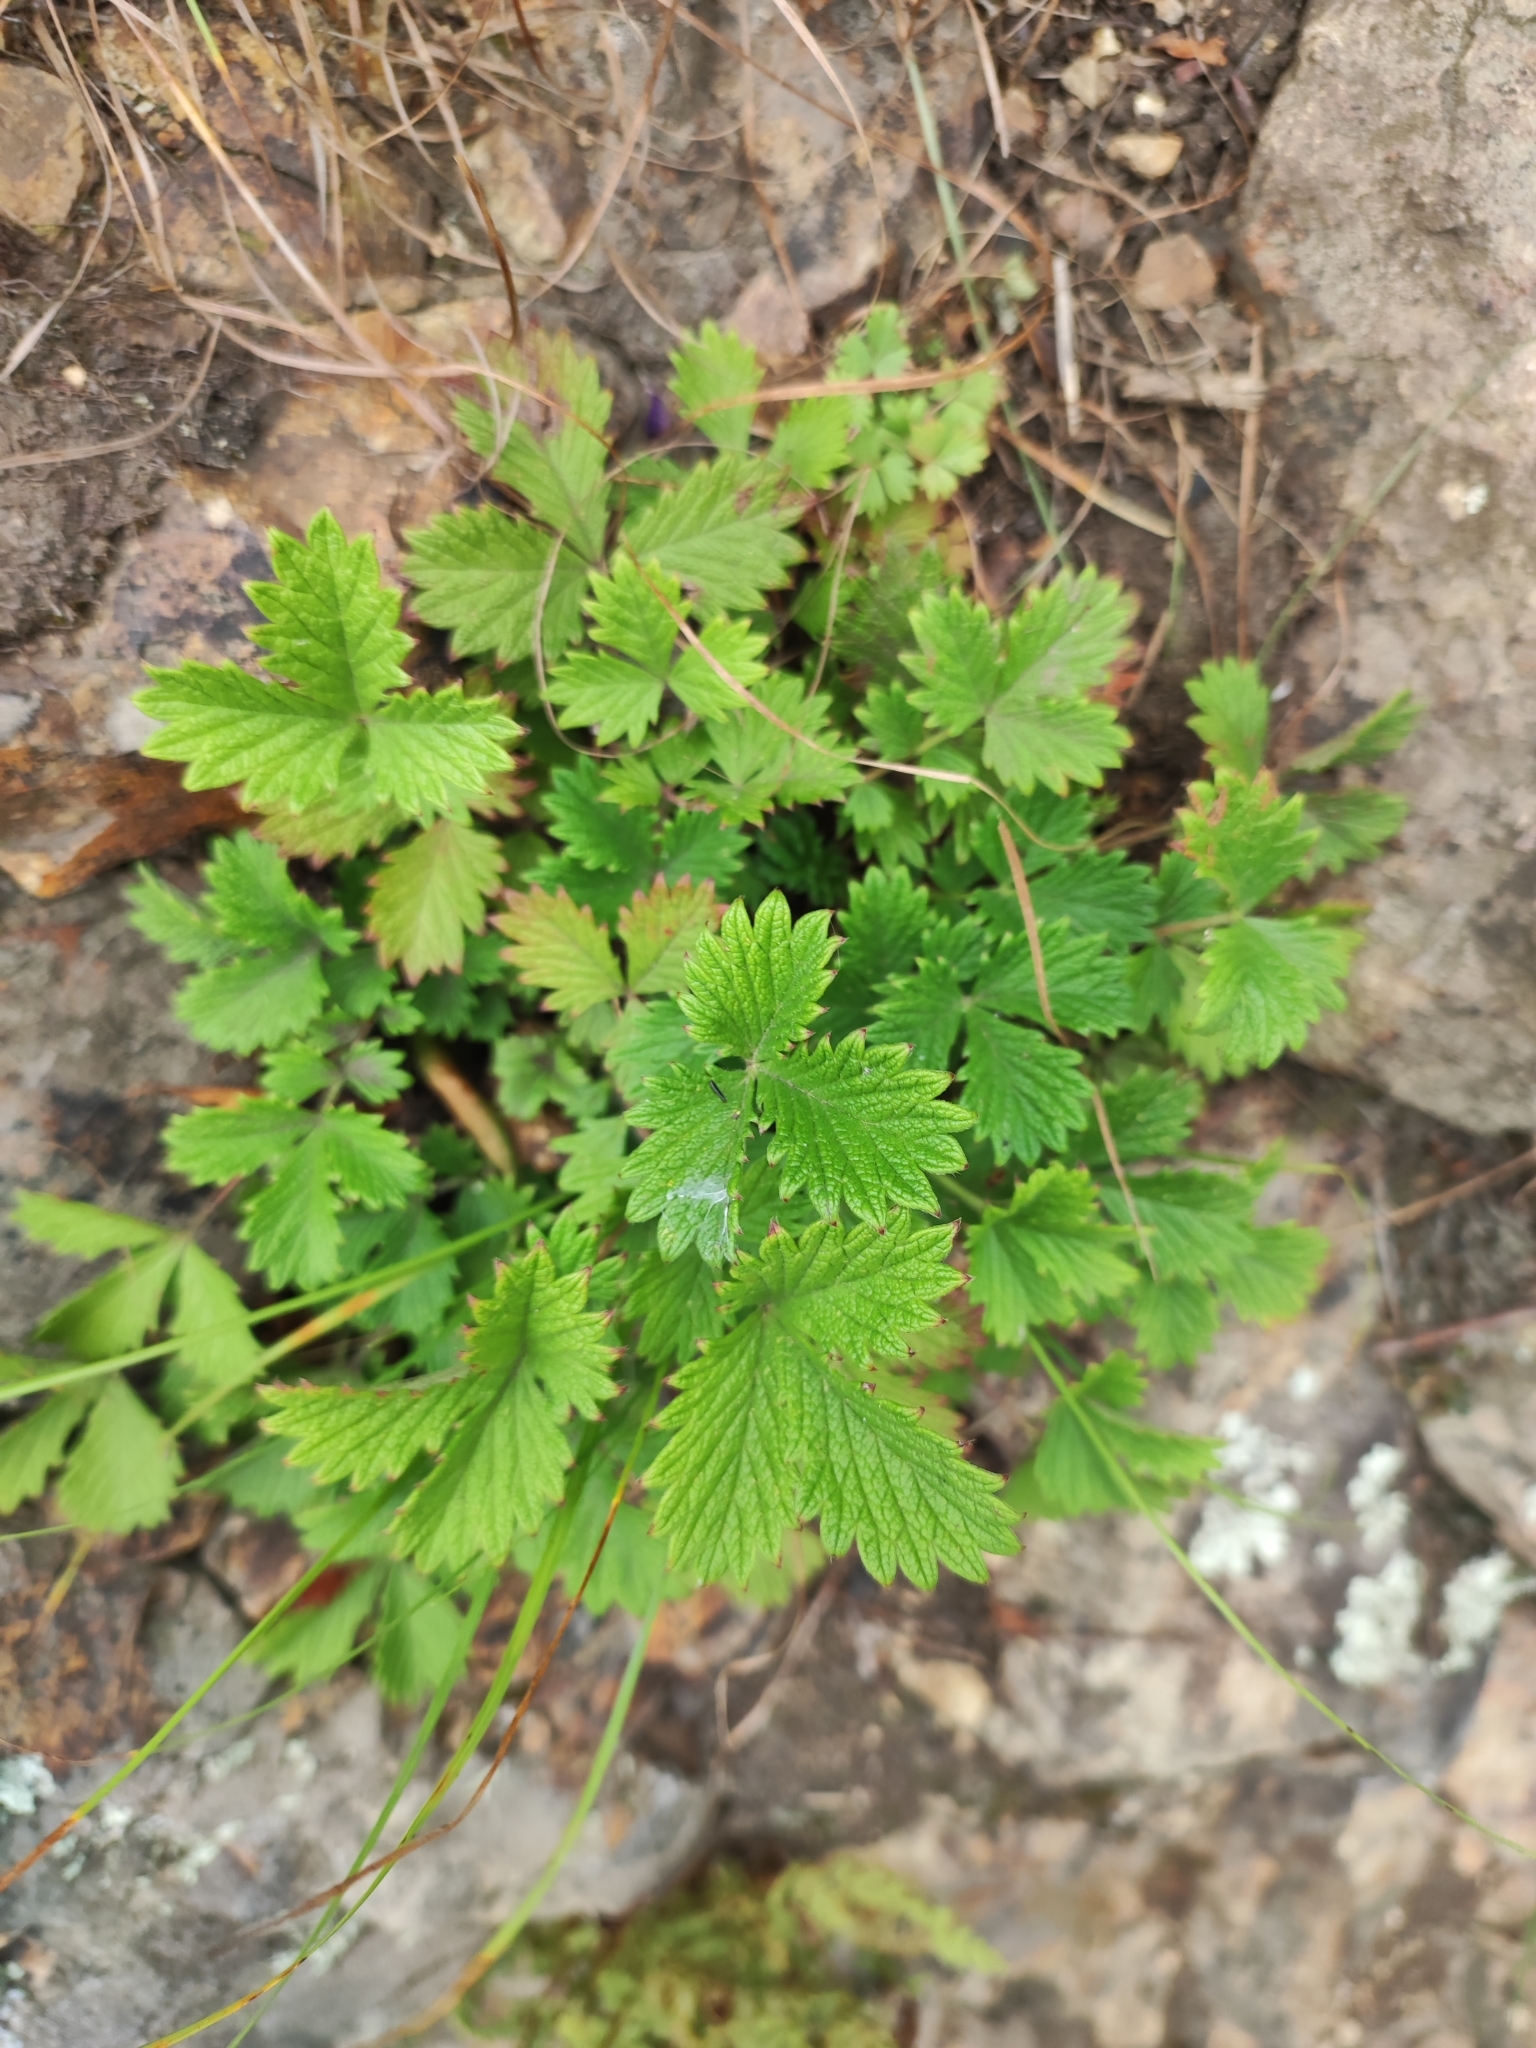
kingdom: Plantae
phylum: Tracheophyta
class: Magnoliopsida
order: Rosales
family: Rosaceae
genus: Potentilla
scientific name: Potentilla ancistrifolia
